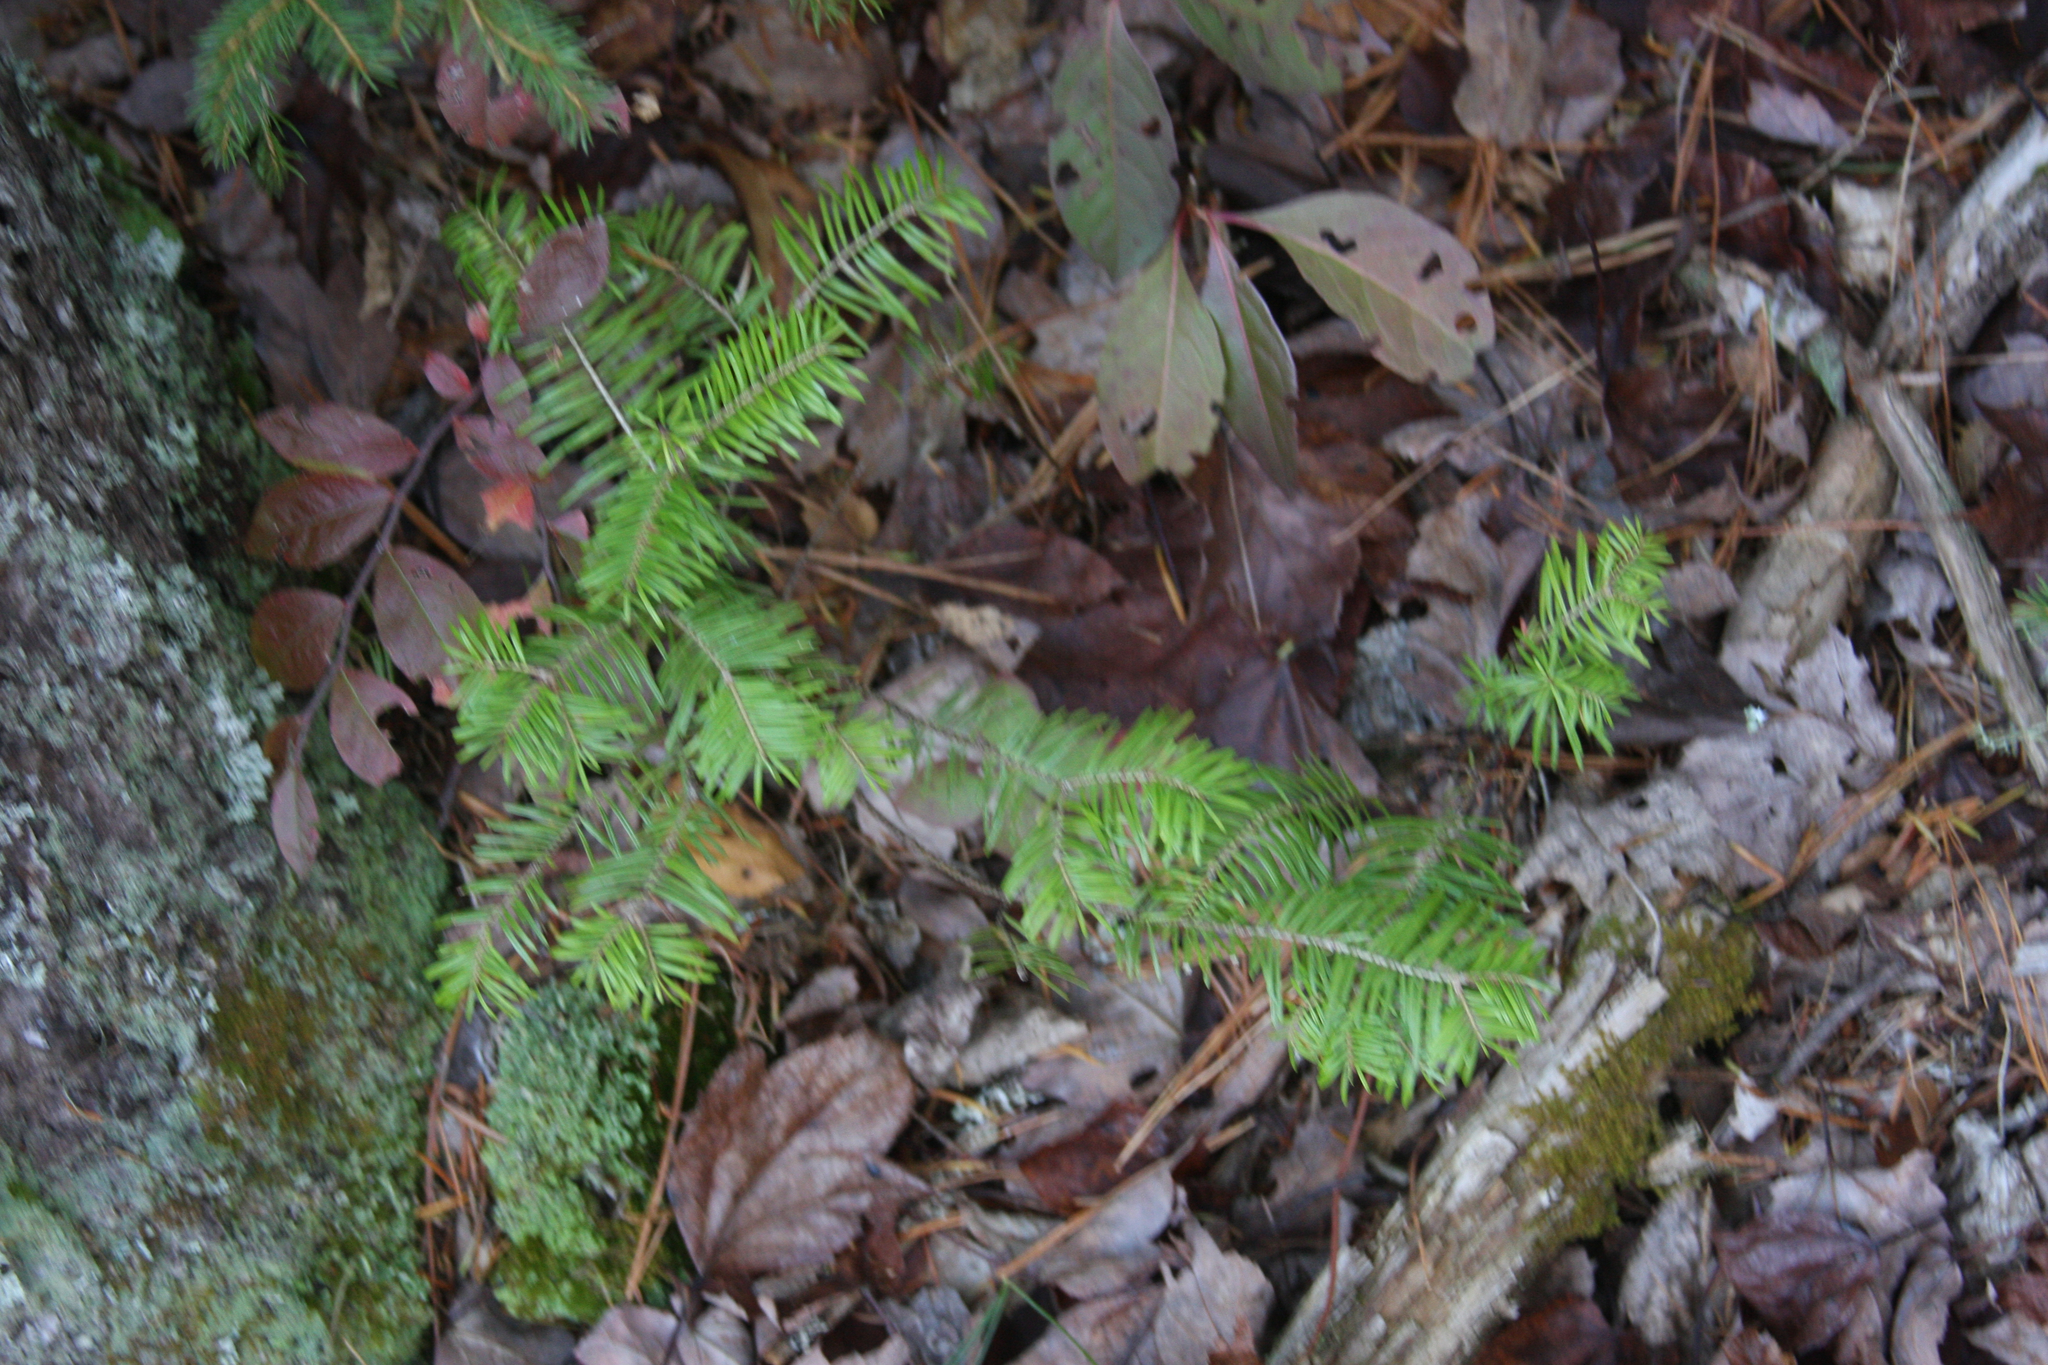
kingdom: Plantae
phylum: Tracheophyta
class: Pinopsida
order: Pinales
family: Pinaceae
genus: Abies
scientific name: Abies balsamea
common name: Balsam fir
